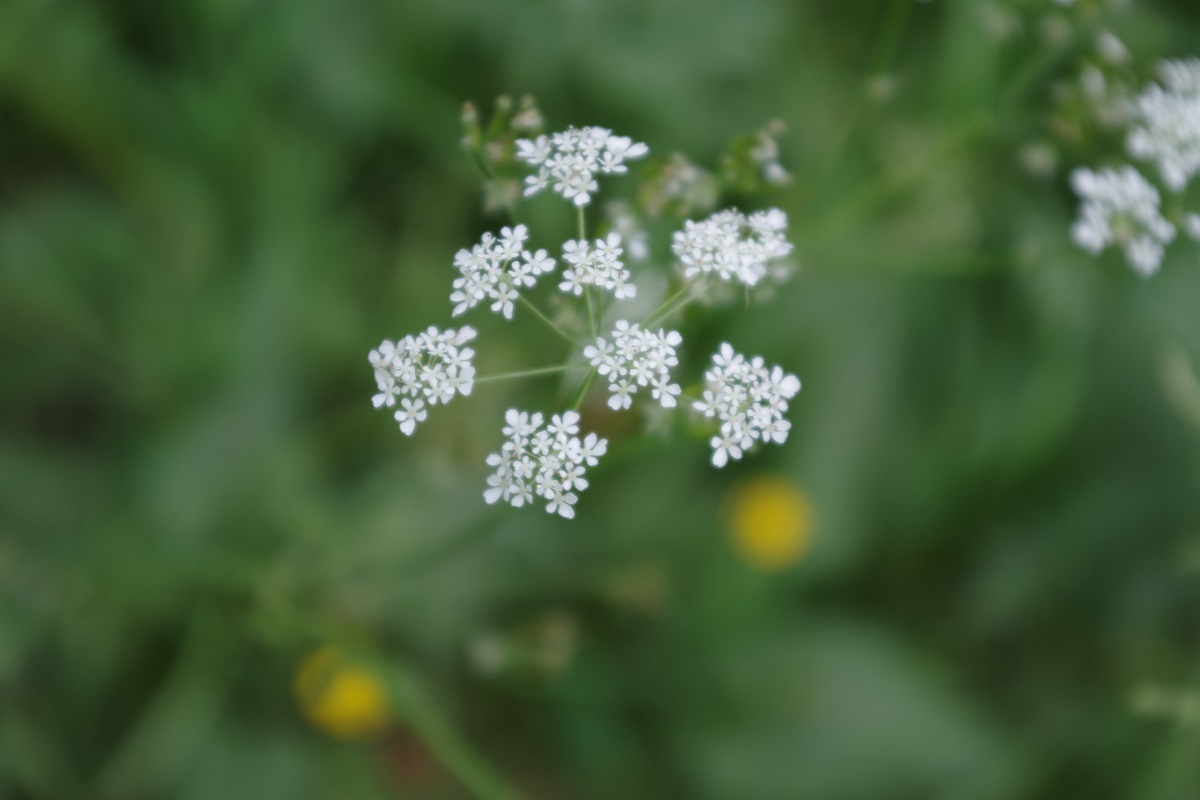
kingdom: Plantae
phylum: Tracheophyta
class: Magnoliopsida
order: Apiales
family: Apiaceae
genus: Anthriscus
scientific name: Anthriscus sylvestris
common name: Cow parsley
